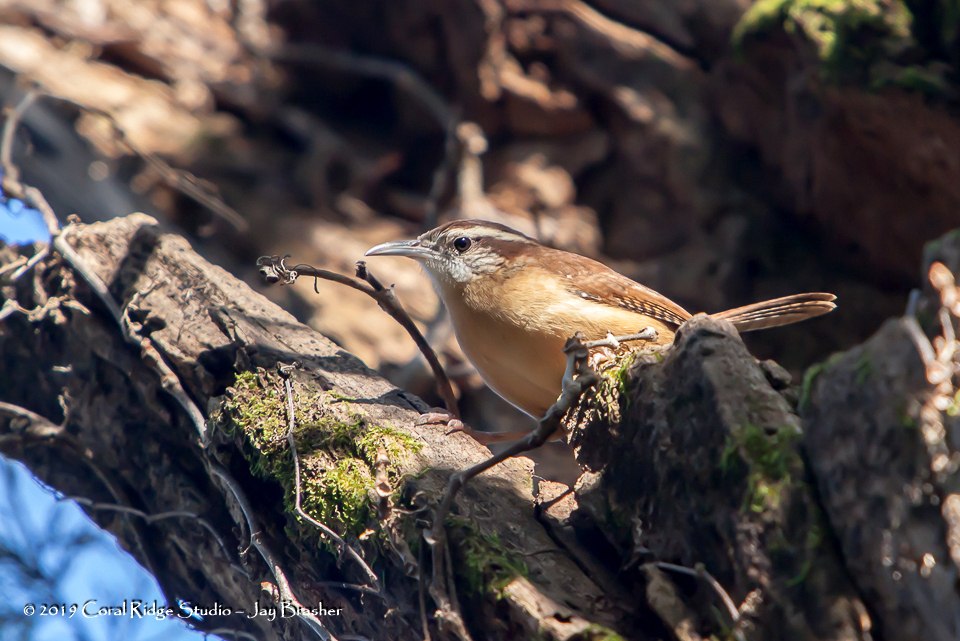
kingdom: Animalia
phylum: Chordata
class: Aves
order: Passeriformes
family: Troglodytidae
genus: Thryothorus
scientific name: Thryothorus ludovicianus
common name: Carolina wren
